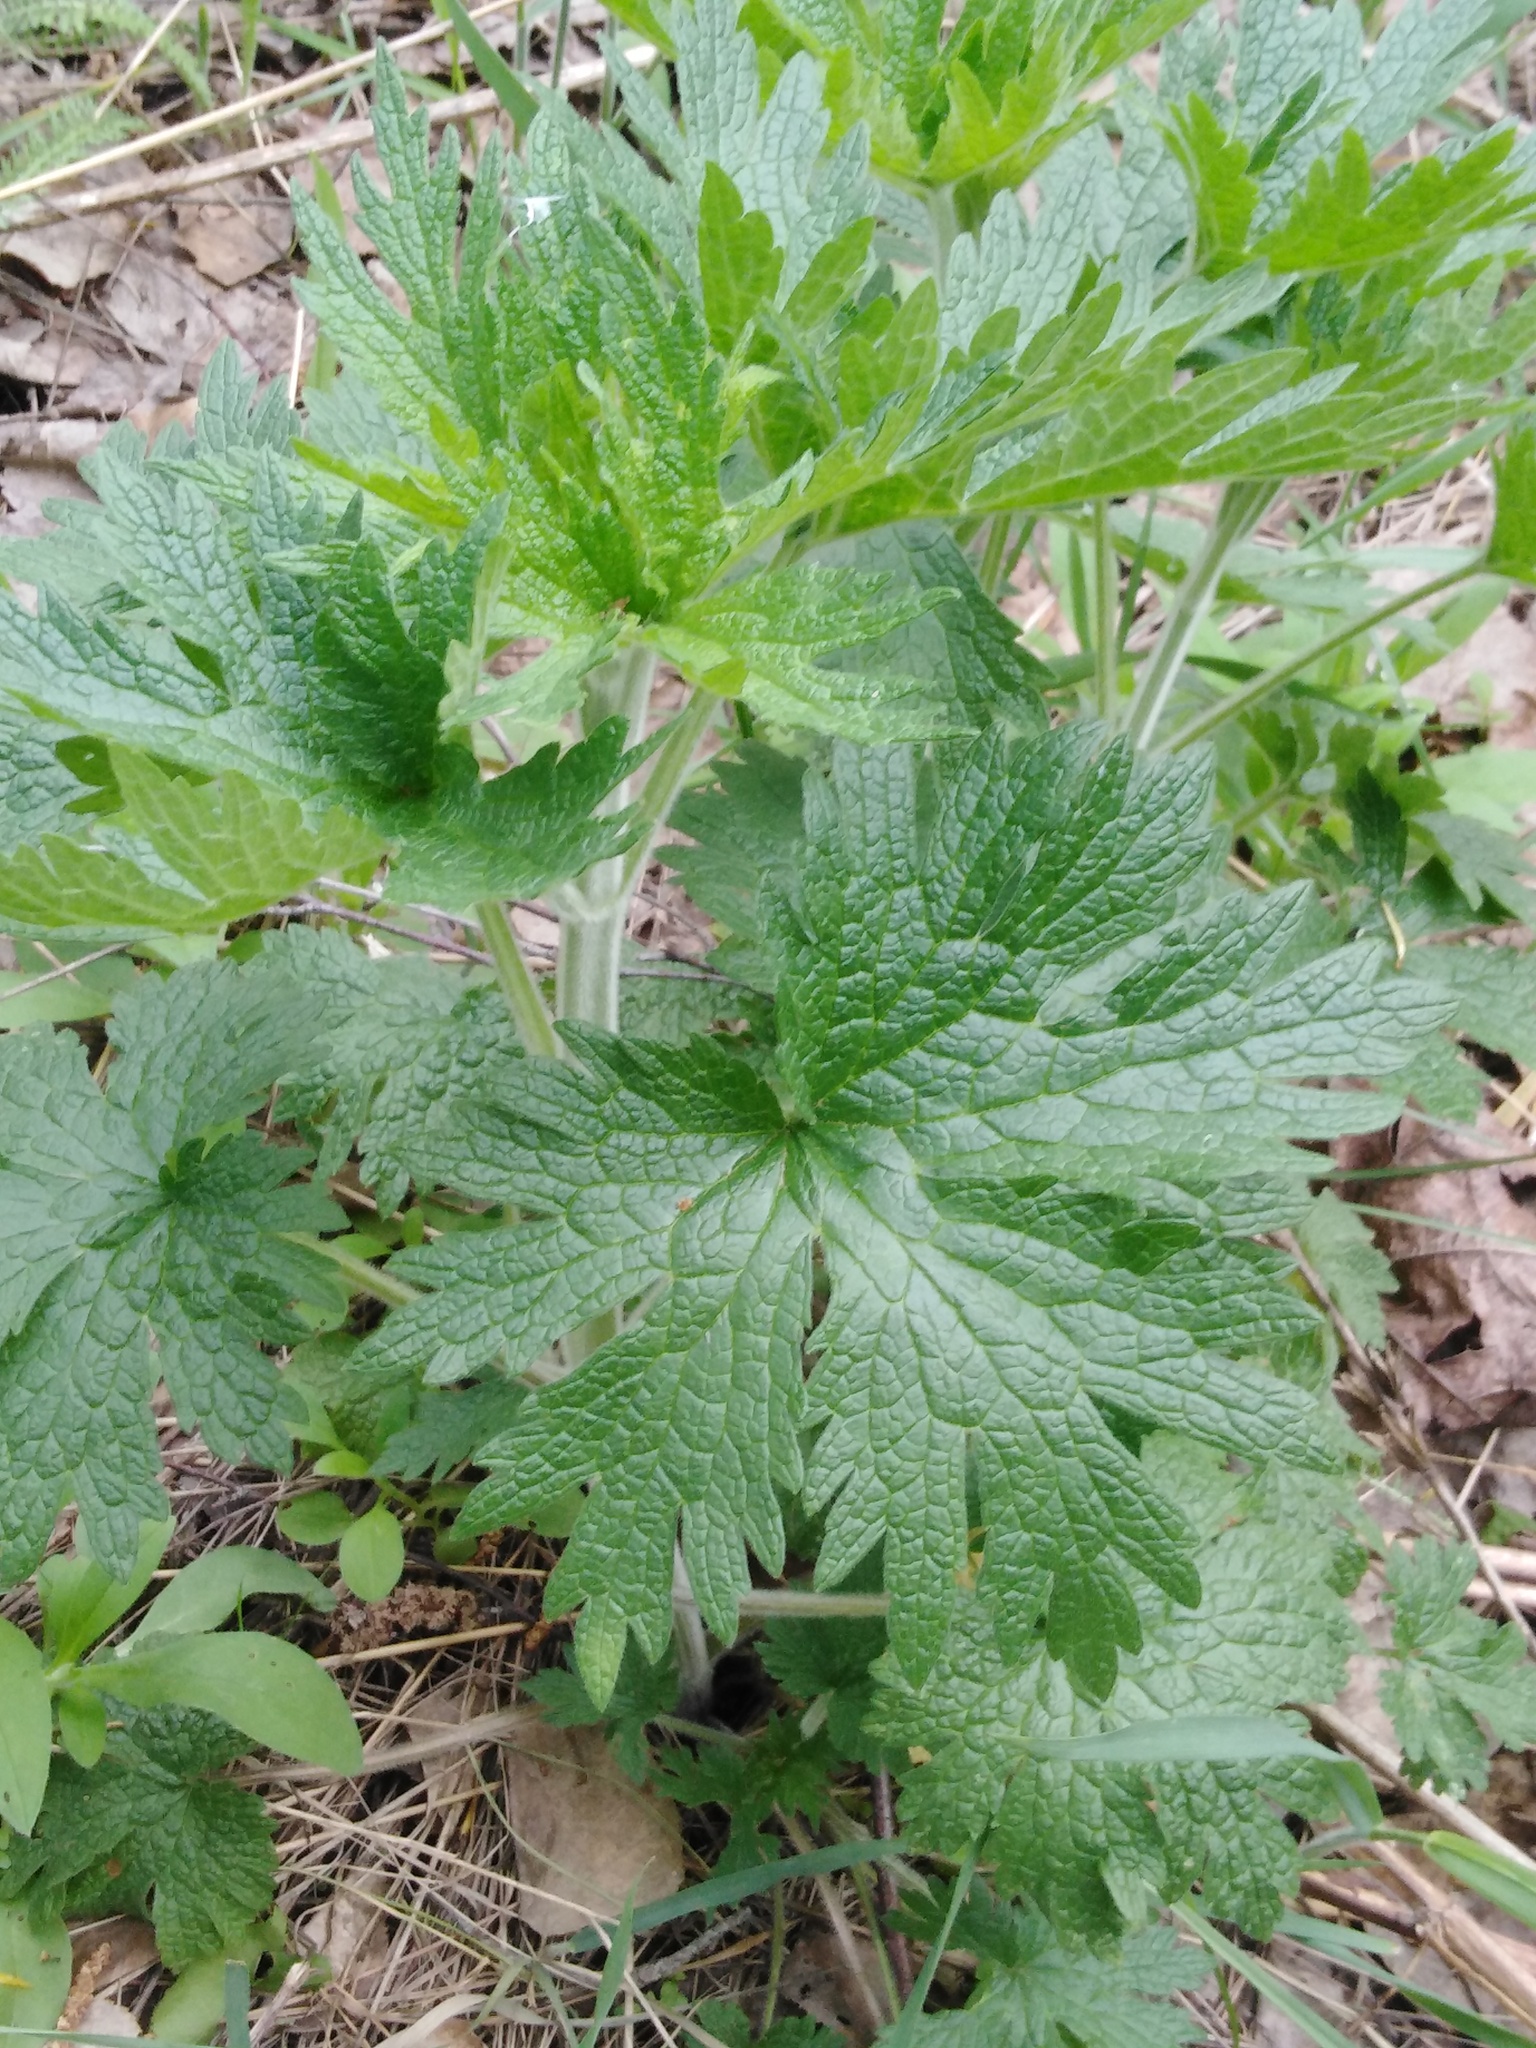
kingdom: Plantae
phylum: Tracheophyta
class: Magnoliopsida
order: Lamiales
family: Lamiaceae
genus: Leonurus
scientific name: Leonurus quinquelobatus
